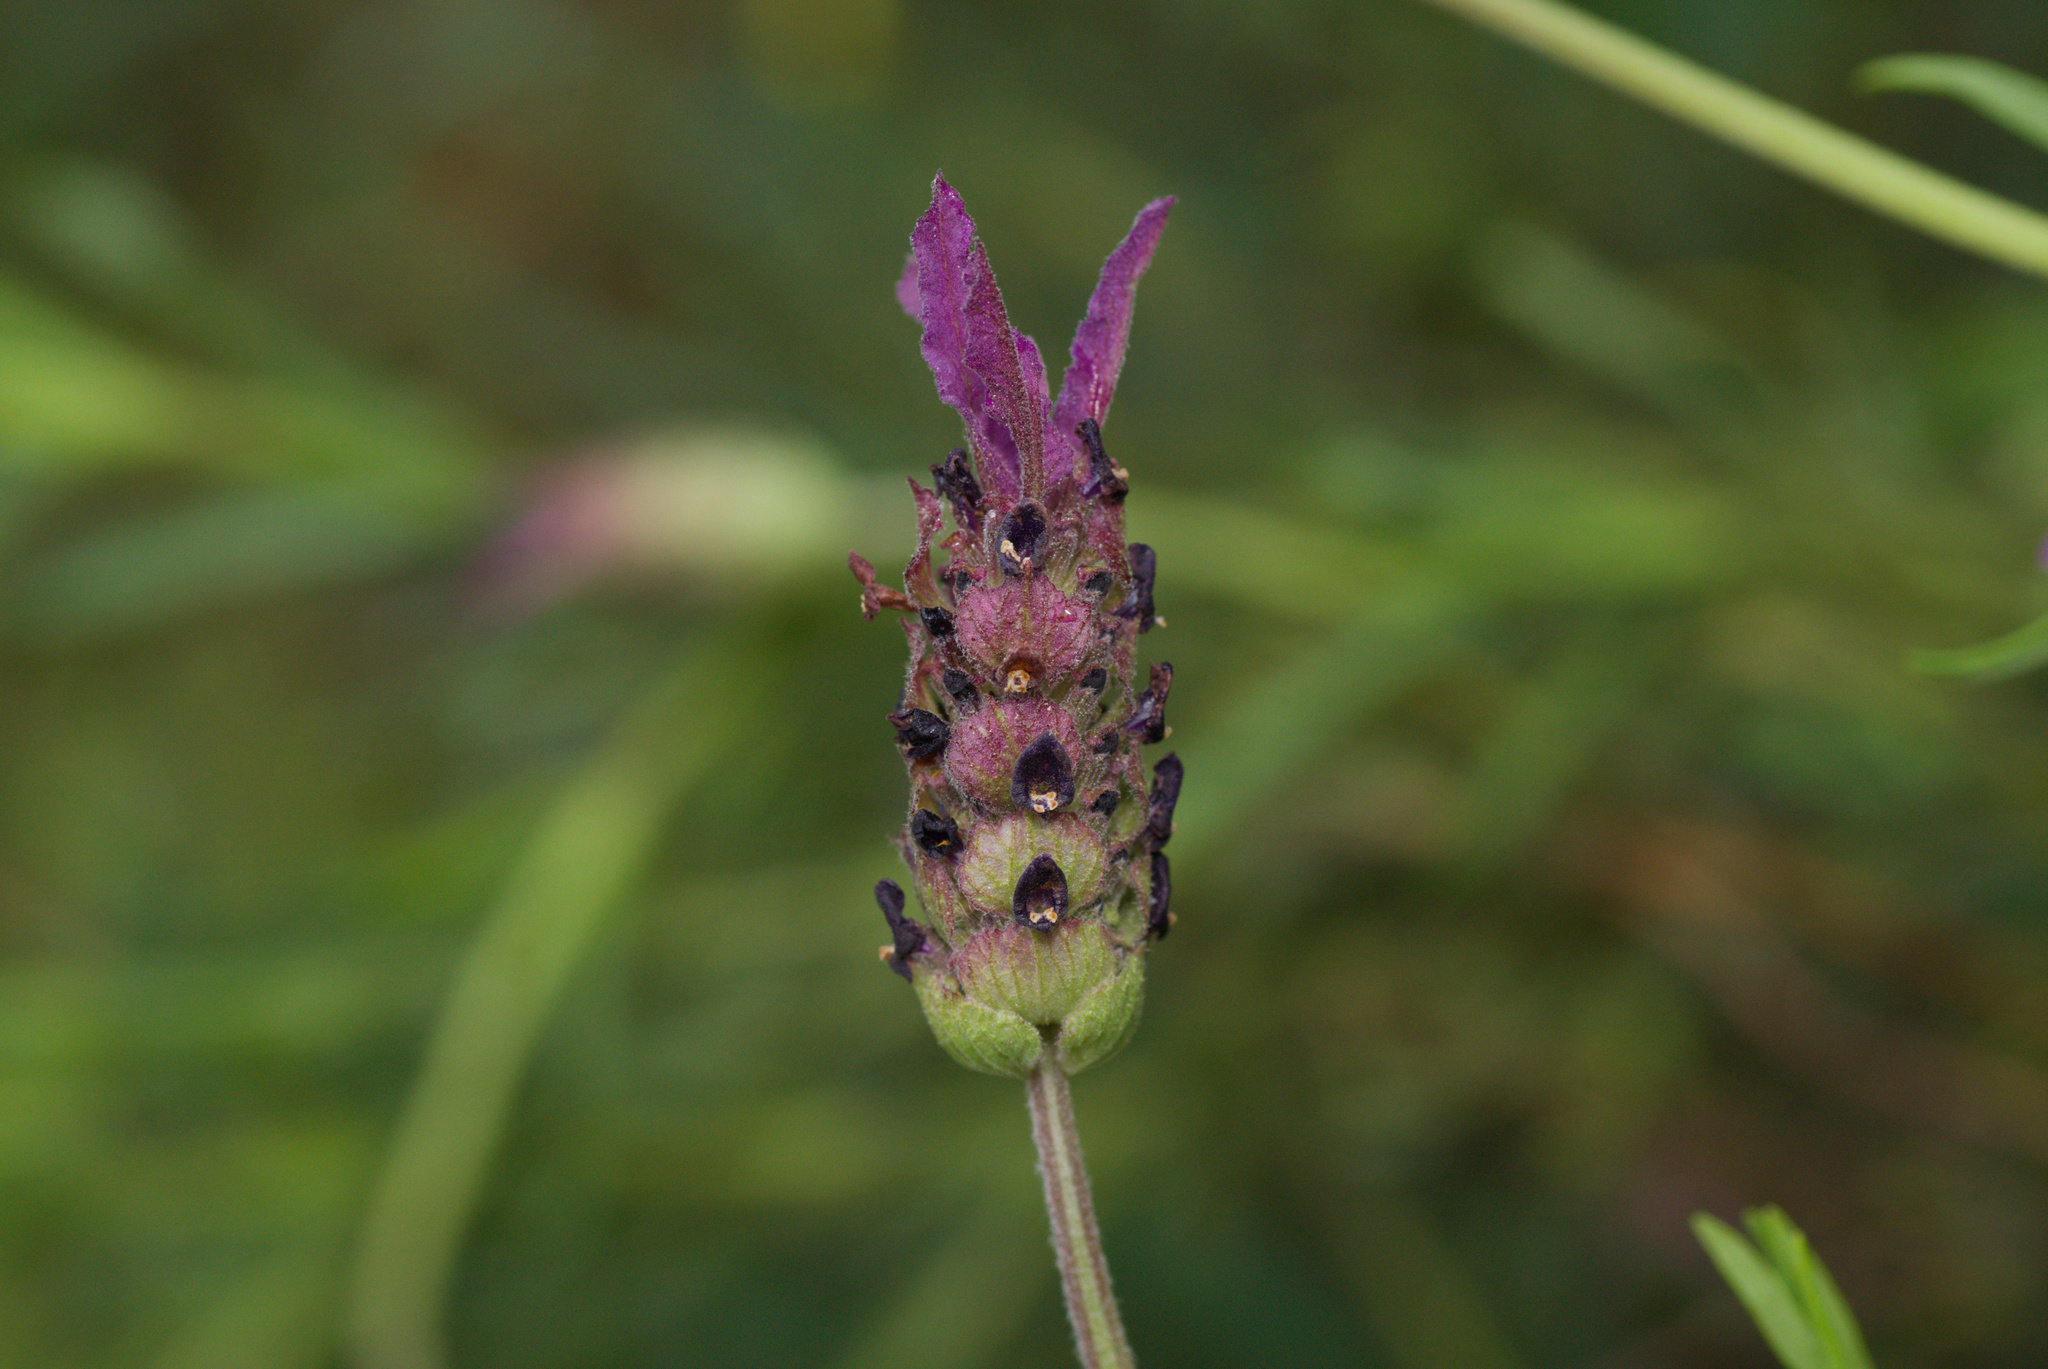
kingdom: Plantae
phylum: Tracheophyta
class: Magnoliopsida
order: Lamiales
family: Lamiaceae
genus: Lavandula
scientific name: Lavandula pedunculata
